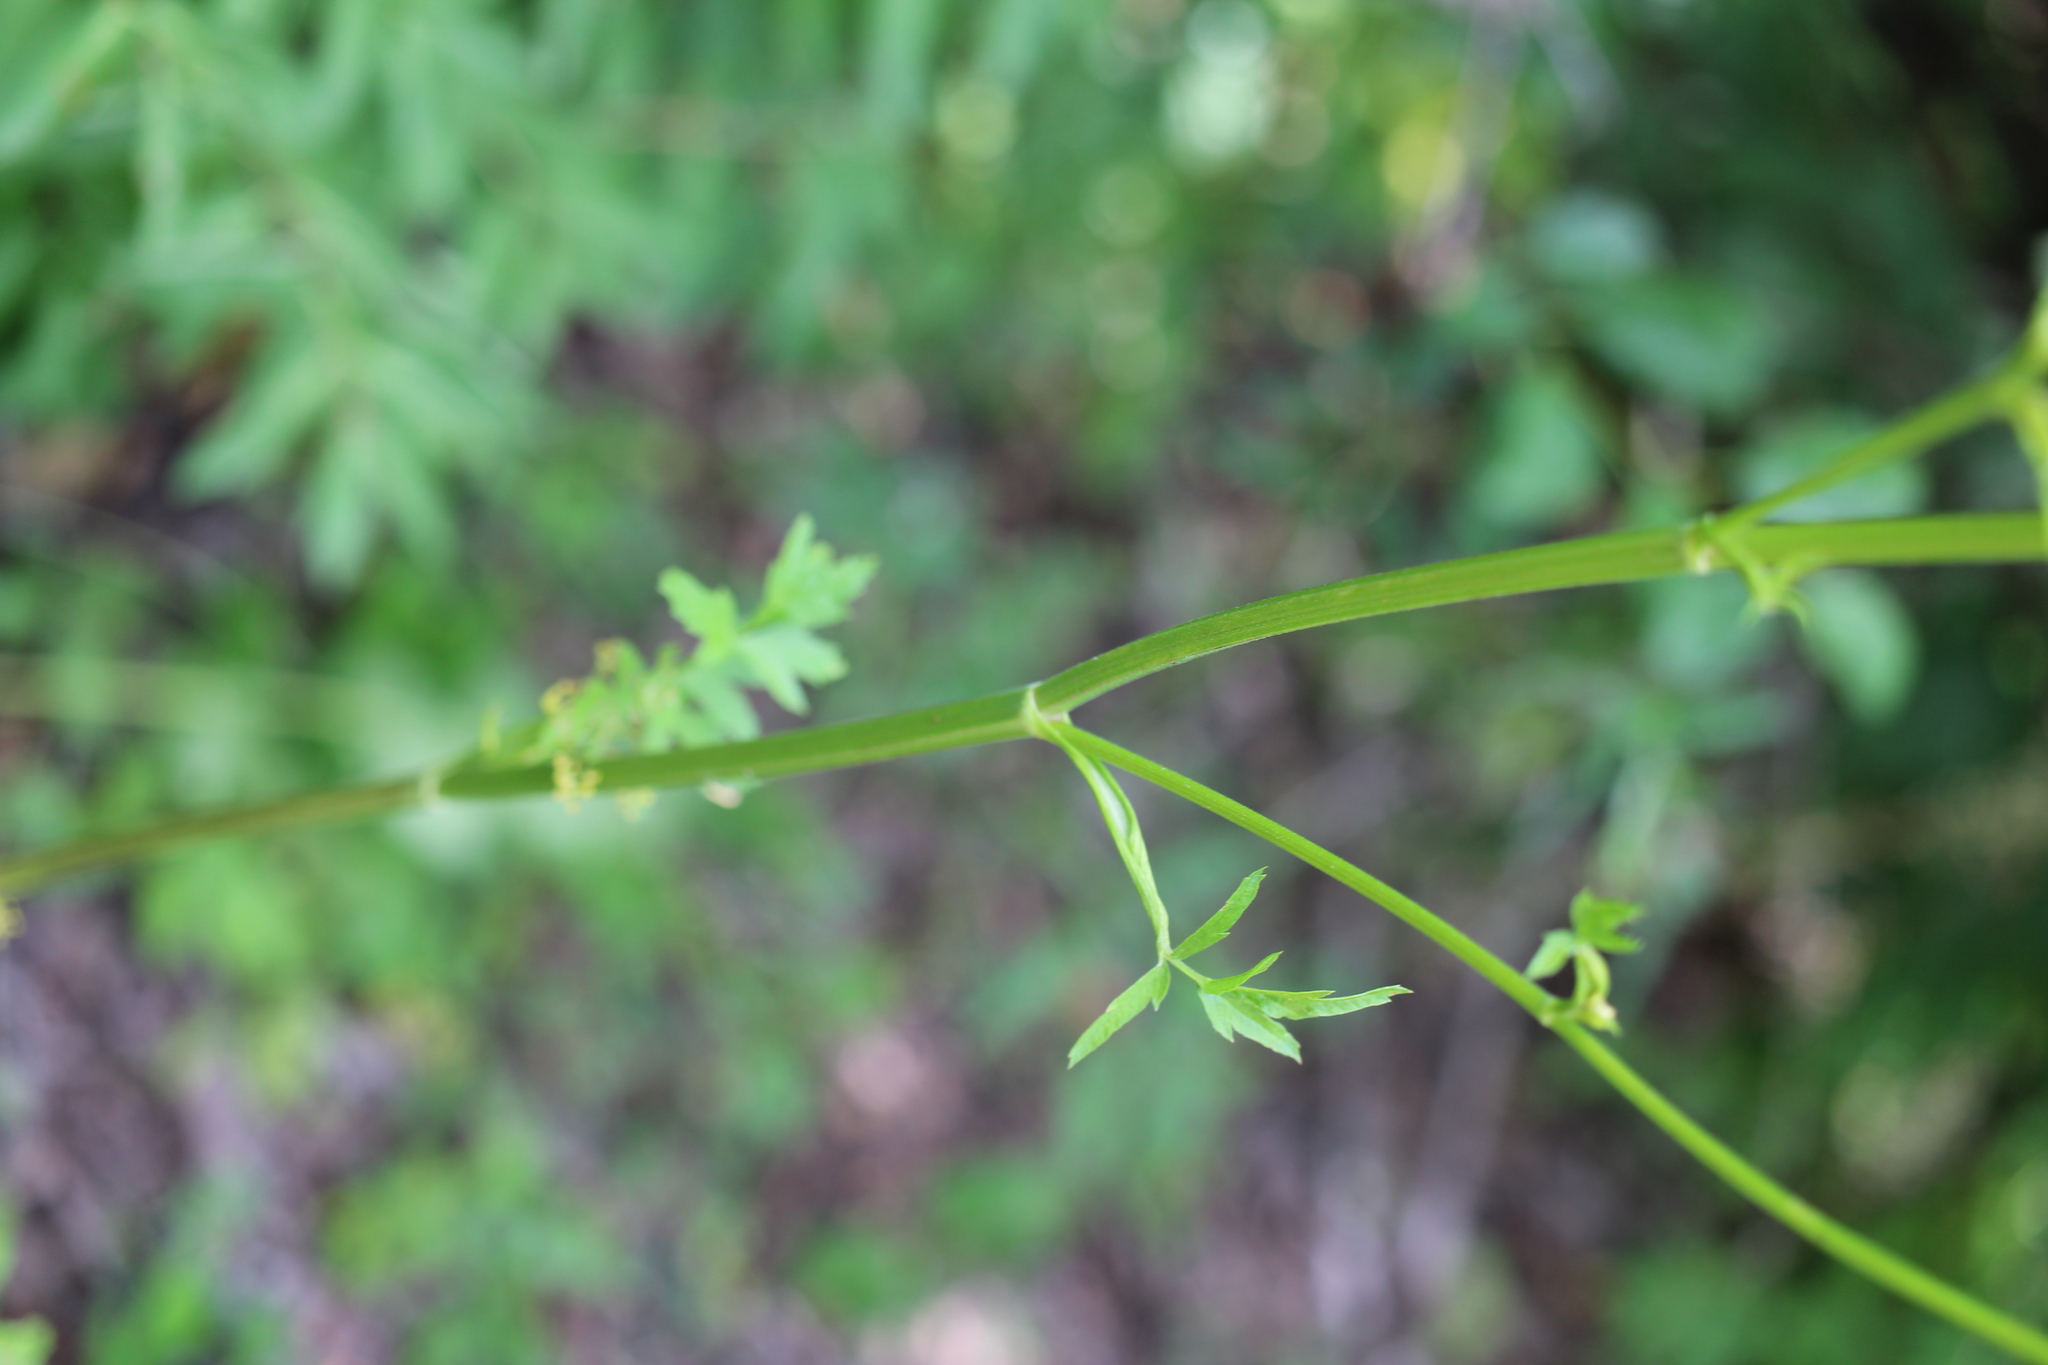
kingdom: Plantae
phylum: Tracheophyta
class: Magnoliopsida
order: Apiales
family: Apiaceae
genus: Pastinaca
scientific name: Pastinaca sativa
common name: Wild parsnip
